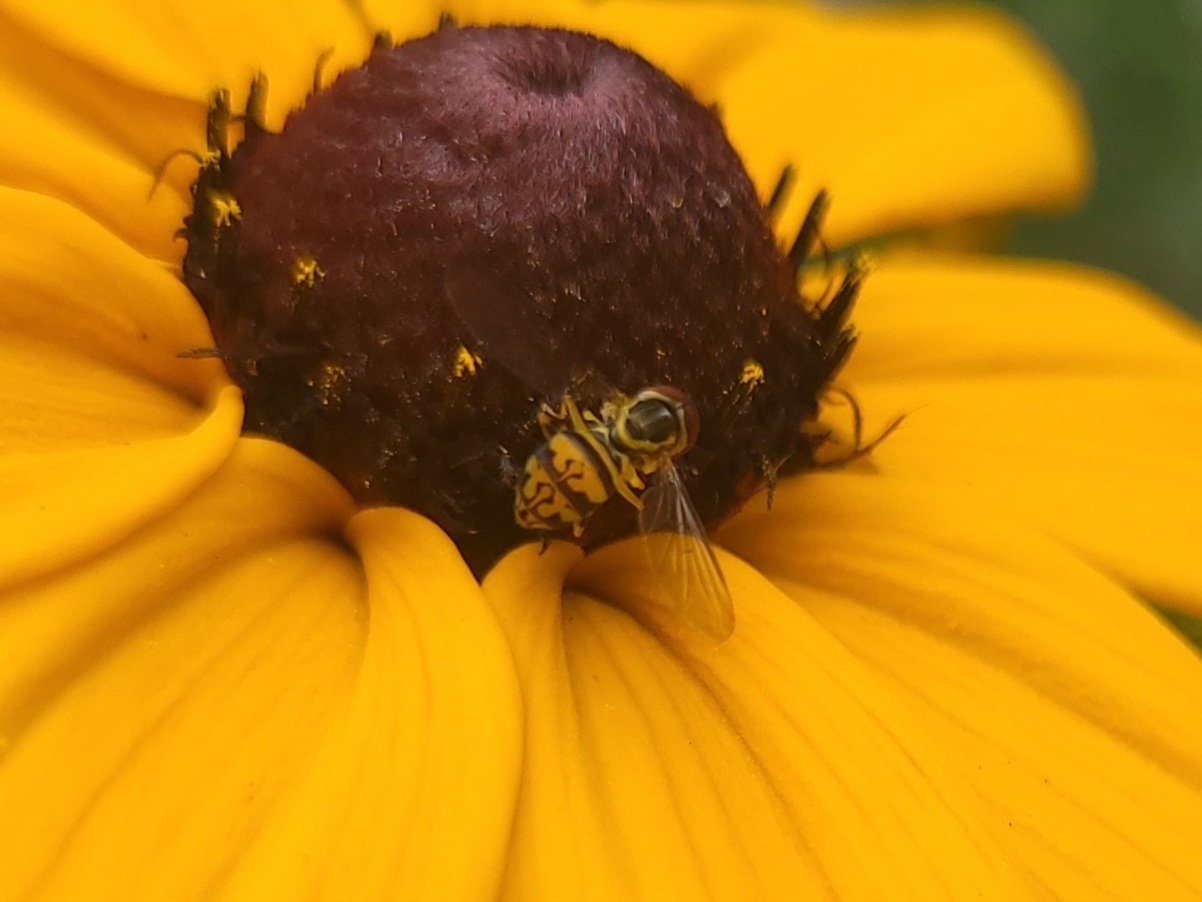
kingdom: Animalia
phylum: Arthropoda
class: Insecta
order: Diptera
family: Syrphidae
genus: Toxomerus
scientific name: Toxomerus geminatus
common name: Eastern calligrapher
